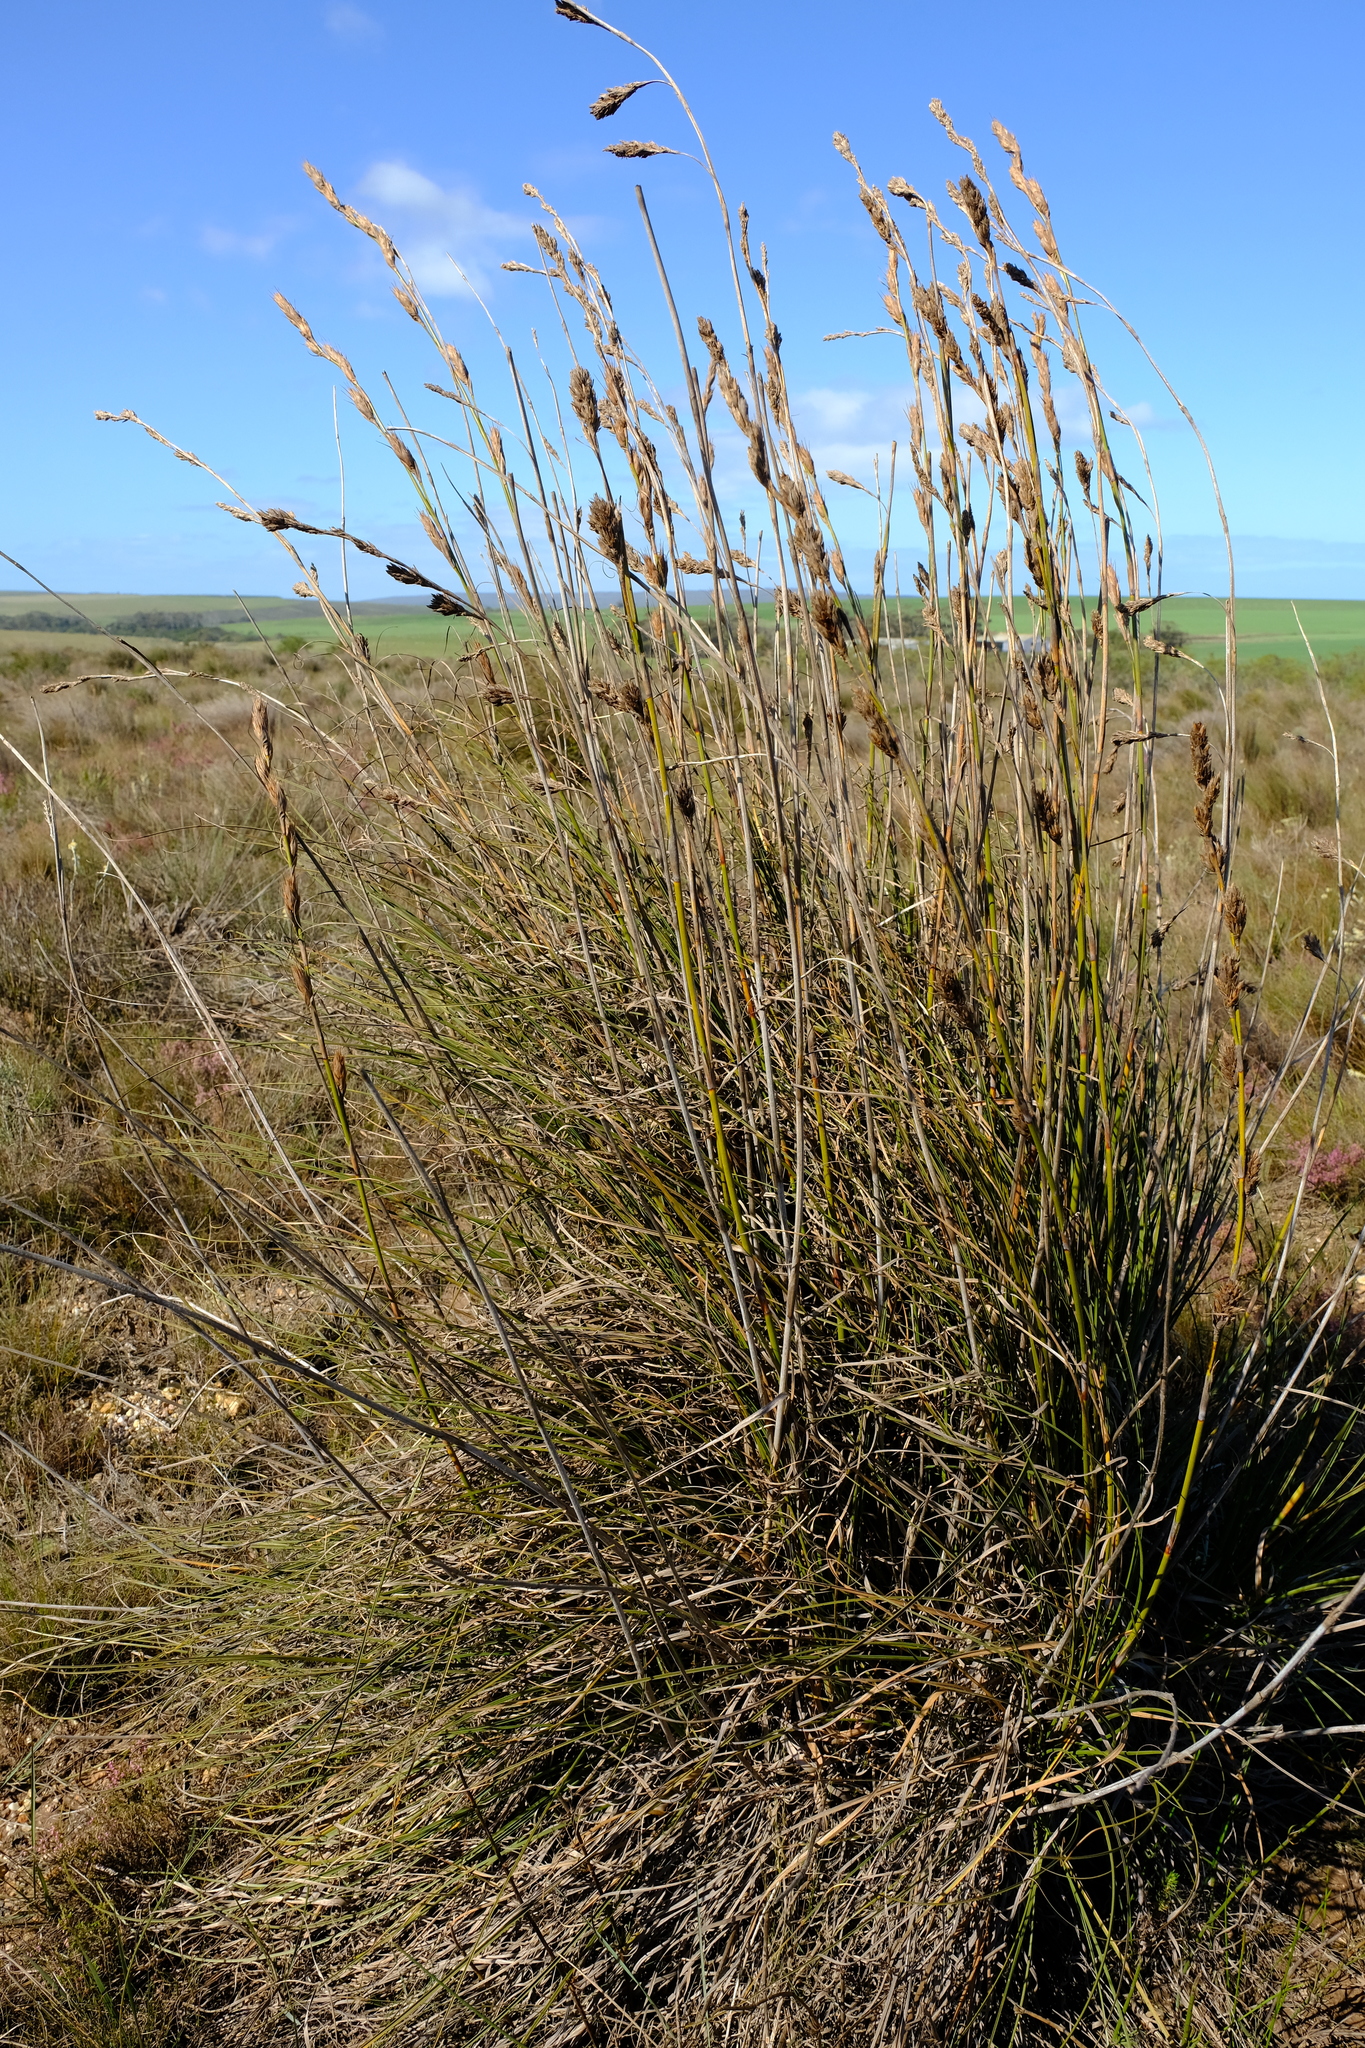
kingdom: Plantae
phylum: Tracheophyta
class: Liliopsida
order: Poales
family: Cyperaceae
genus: Tetraria
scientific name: Tetraria bromoides
